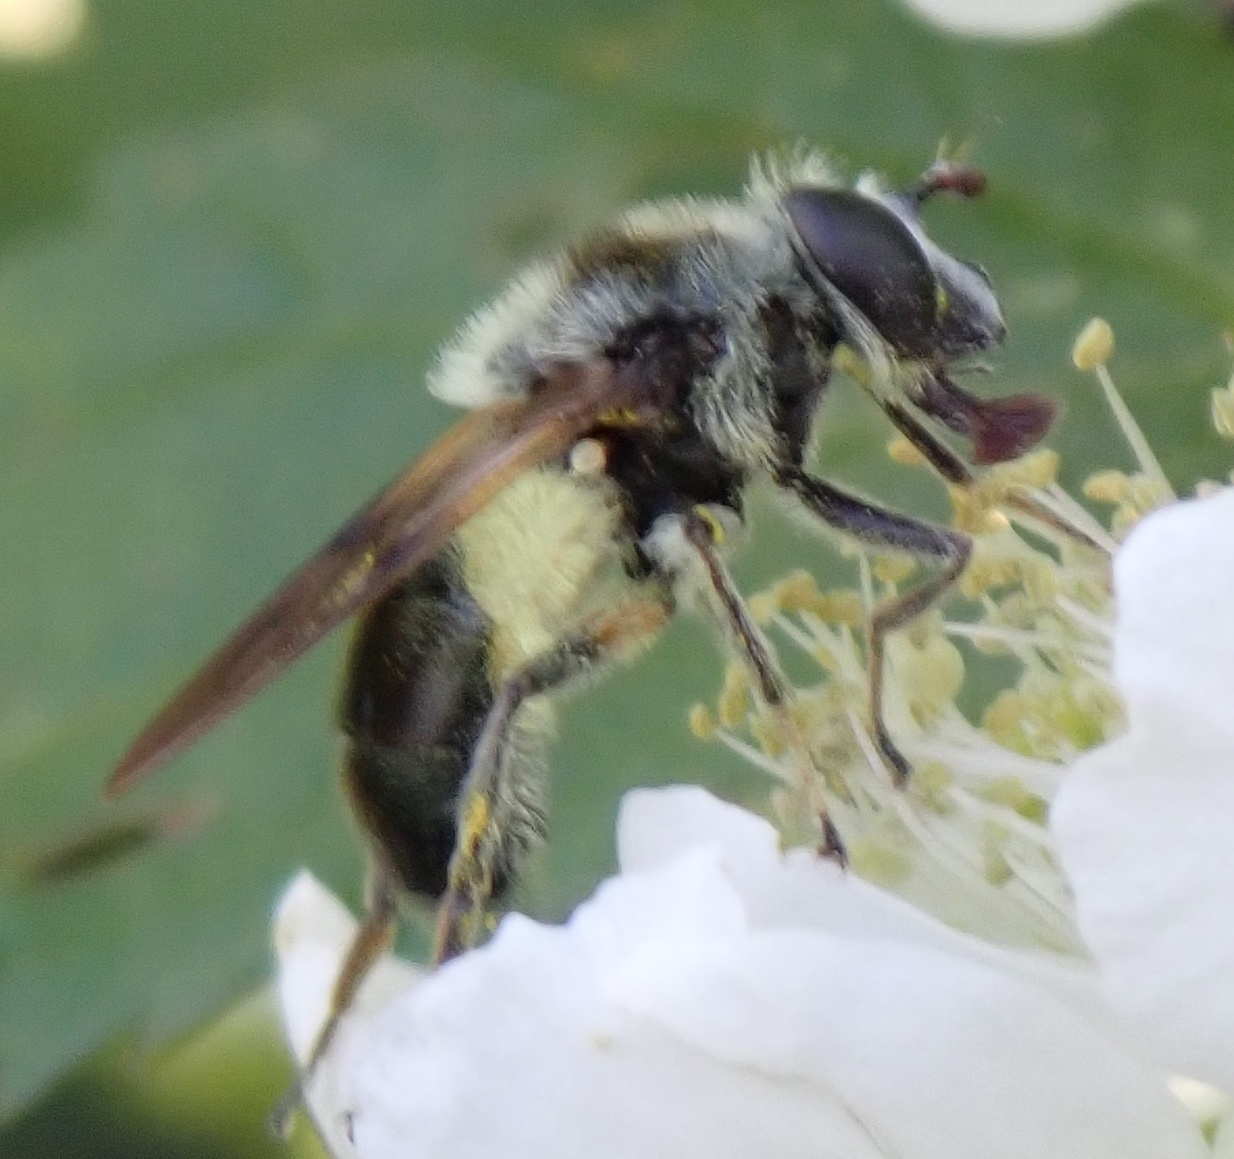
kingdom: Animalia
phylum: Arthropoda
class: Insecta
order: Diptera
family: Syrphidae
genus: Blera
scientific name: Blera umbratilis
